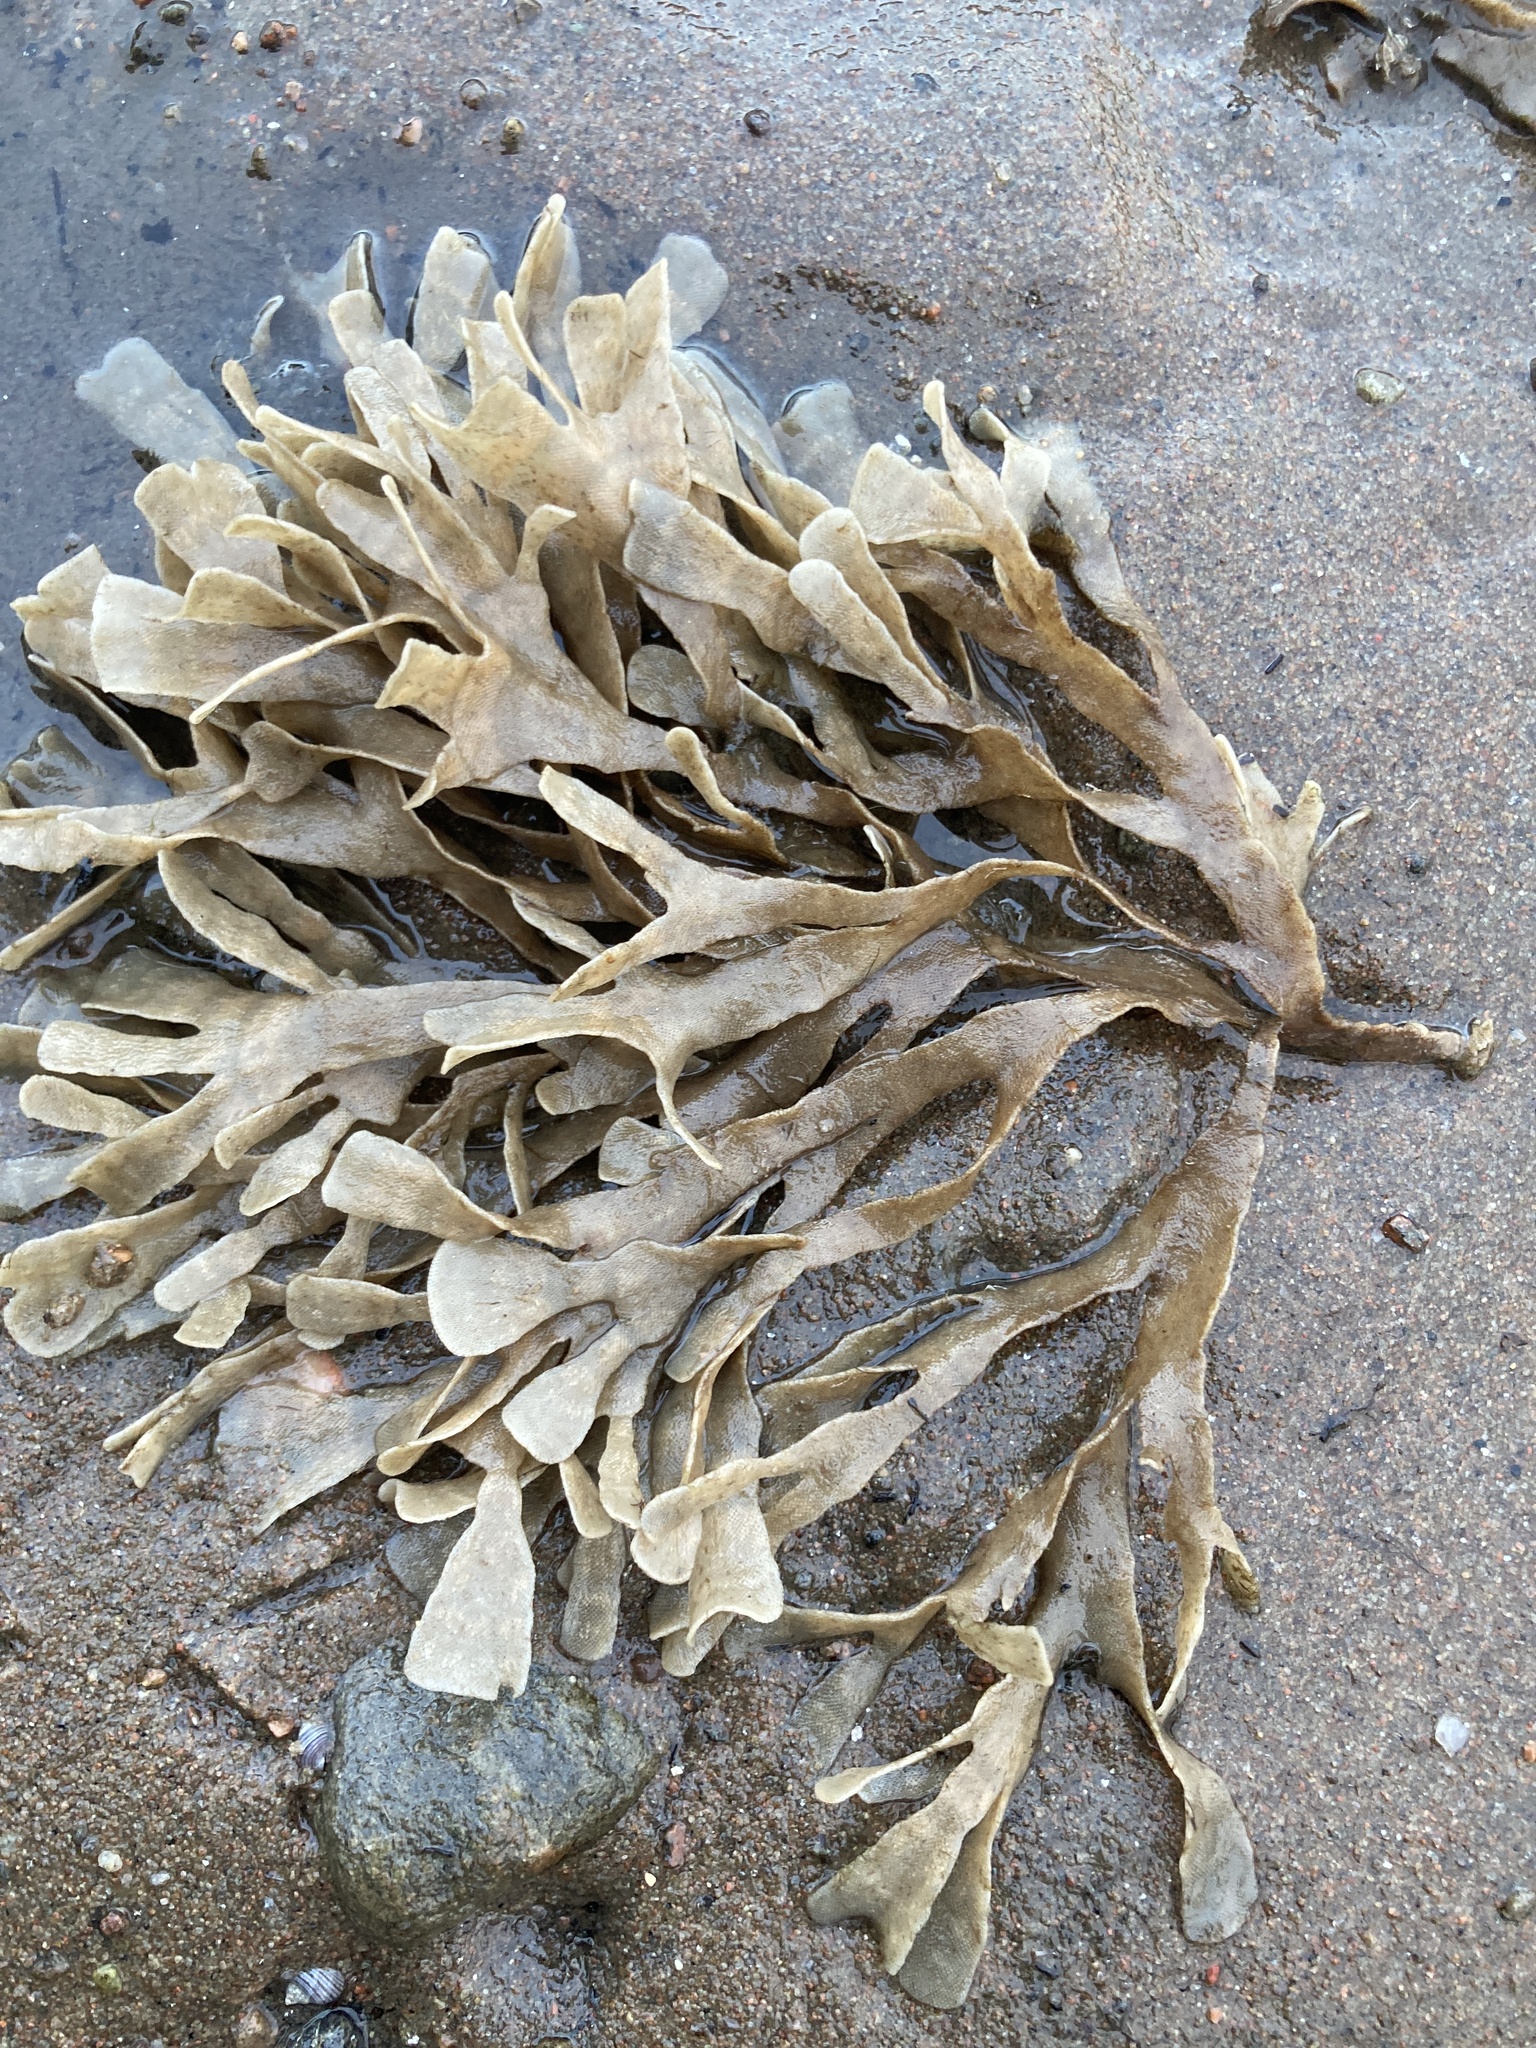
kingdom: Animalia
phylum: Bryozoa
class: Gymnolaemata
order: Cheilostomatida
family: Flustridae
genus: Flustra
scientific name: Flustra foliacea
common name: Hornwrack
